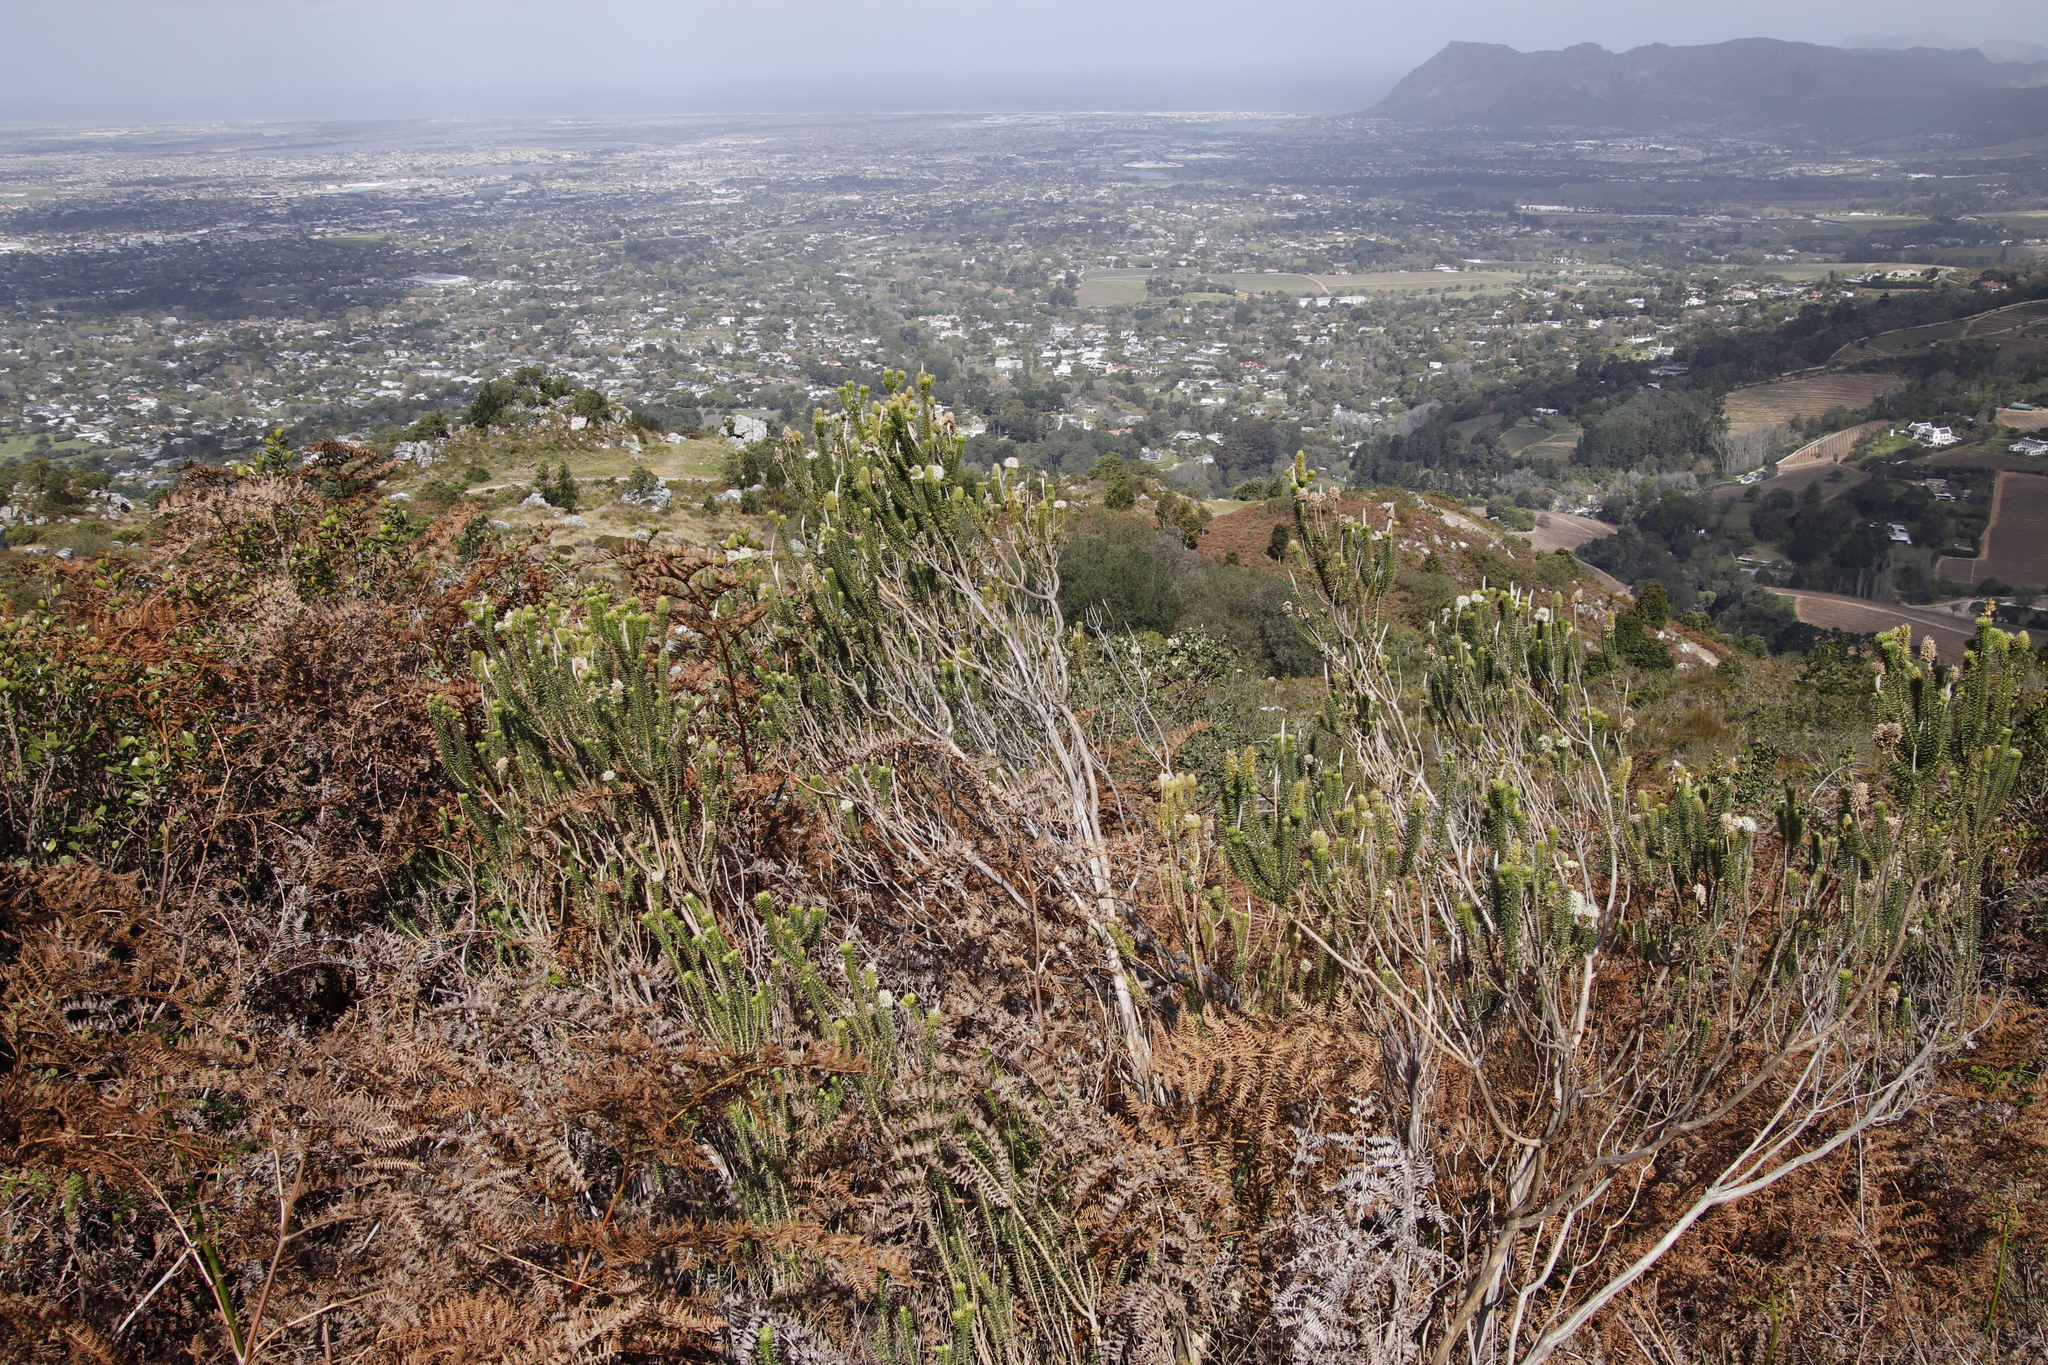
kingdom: Plantae
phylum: Tracheophyta
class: Magnoliopsida
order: Lamiales
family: Stilbaceae
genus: Stilbe
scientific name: Stilbe vestita
